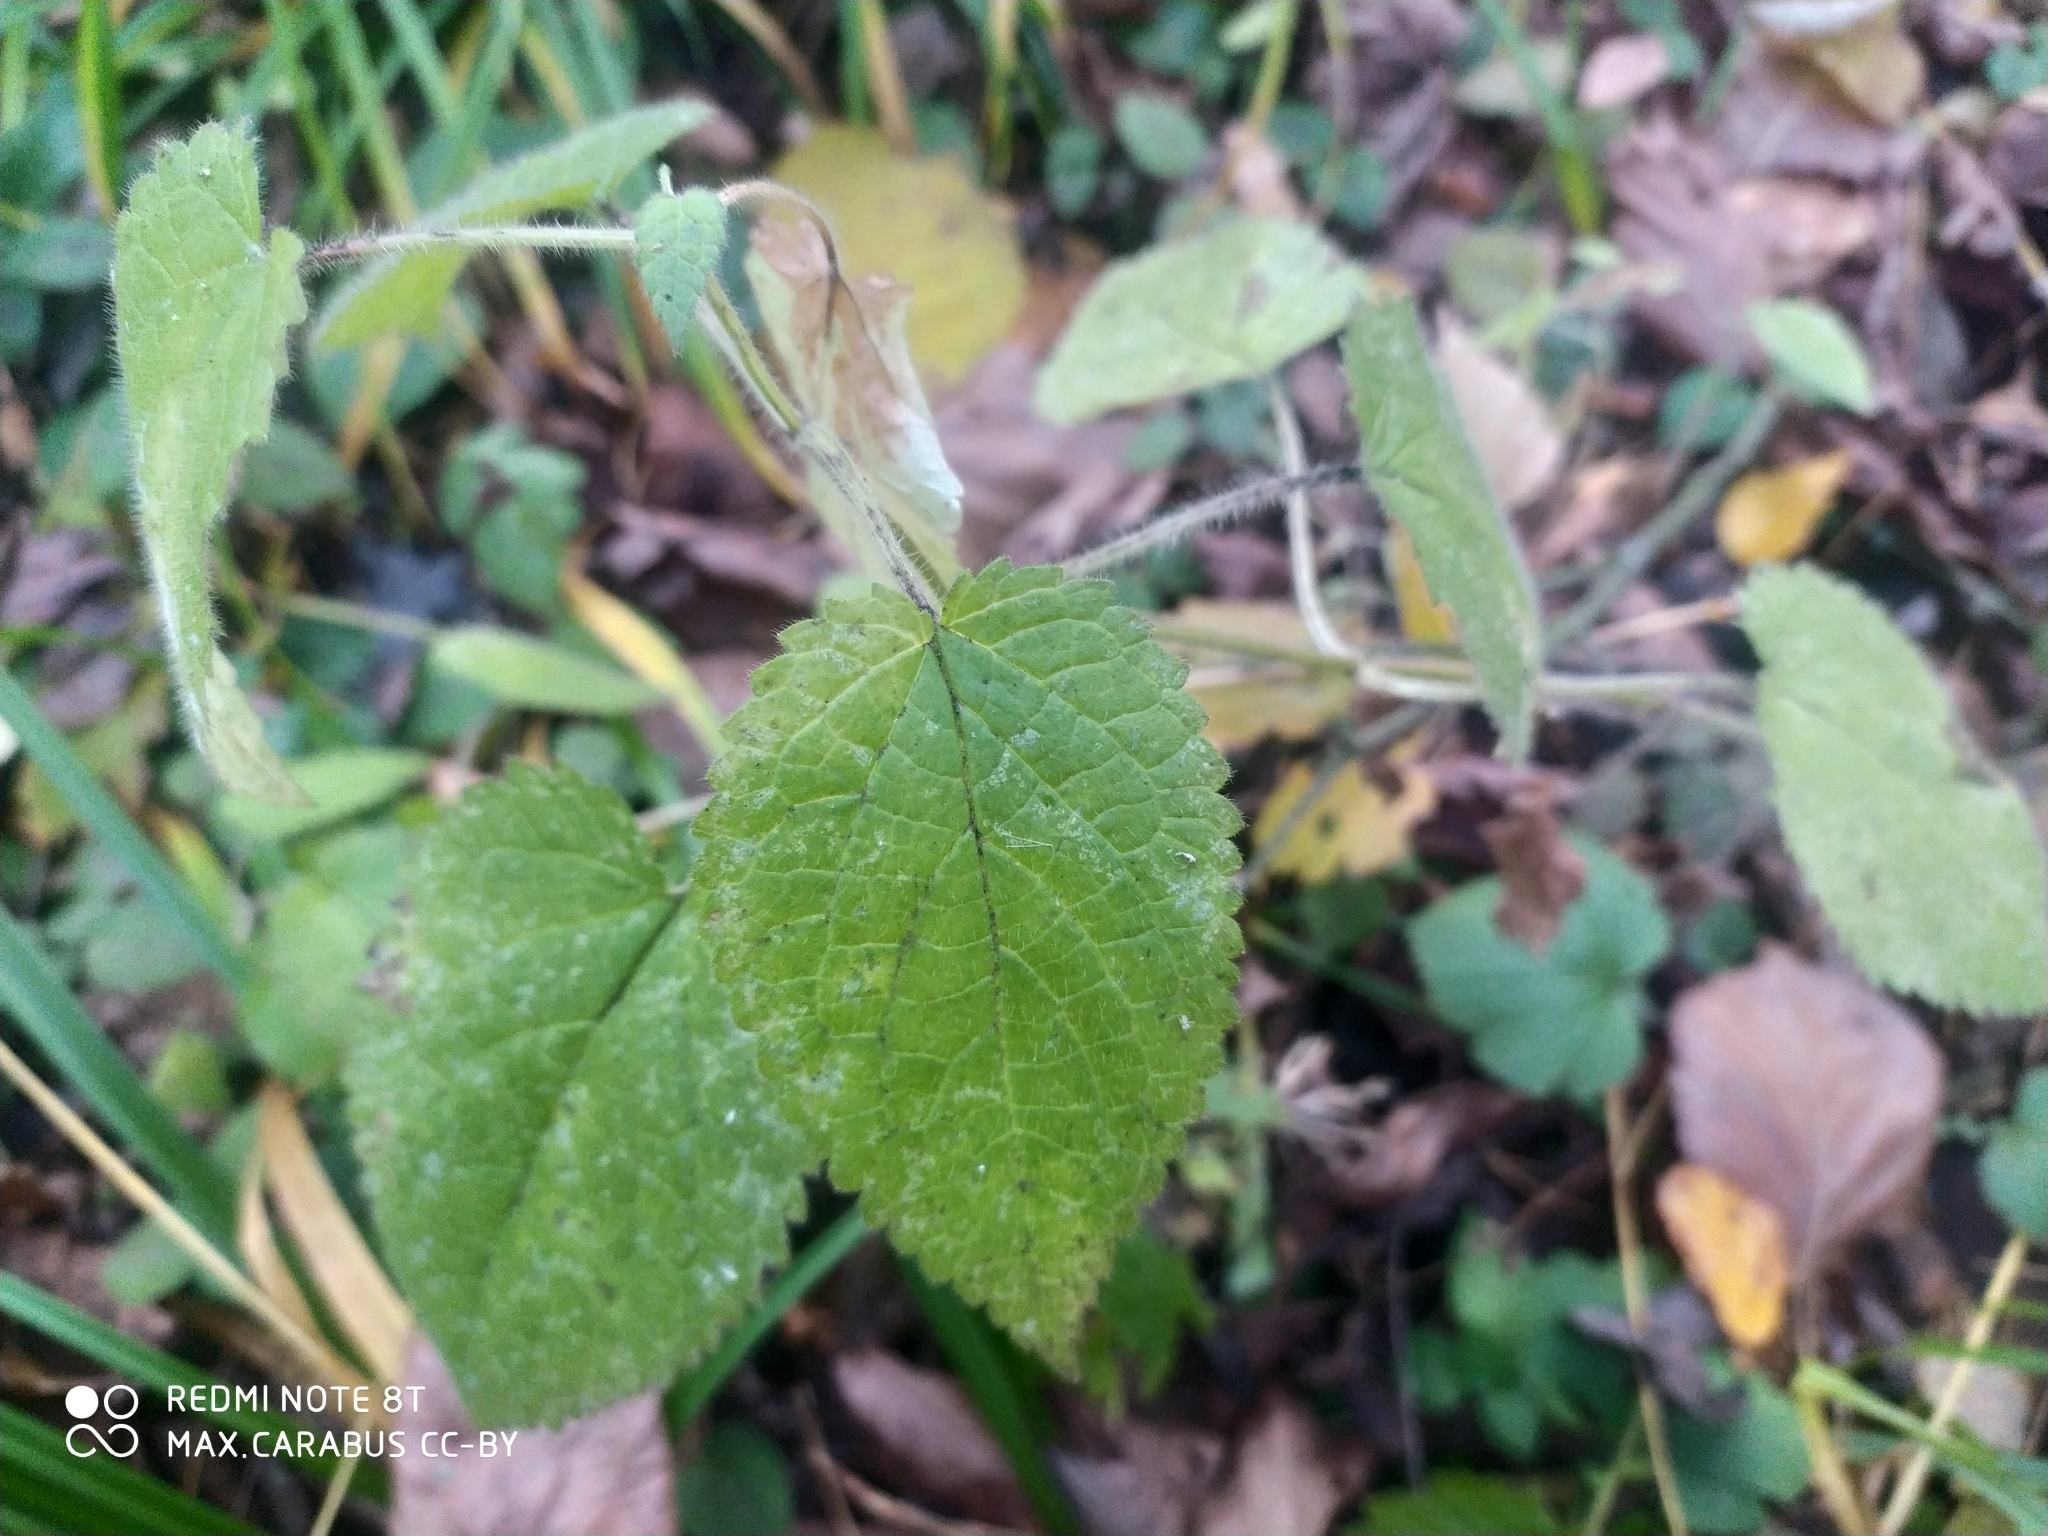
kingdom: Plantae
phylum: Tracheophyta
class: Magnoliopsida
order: Lamiales
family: Lamiaceae
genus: Stachys
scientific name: Stachys sylvatica
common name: Hedge woundwort
